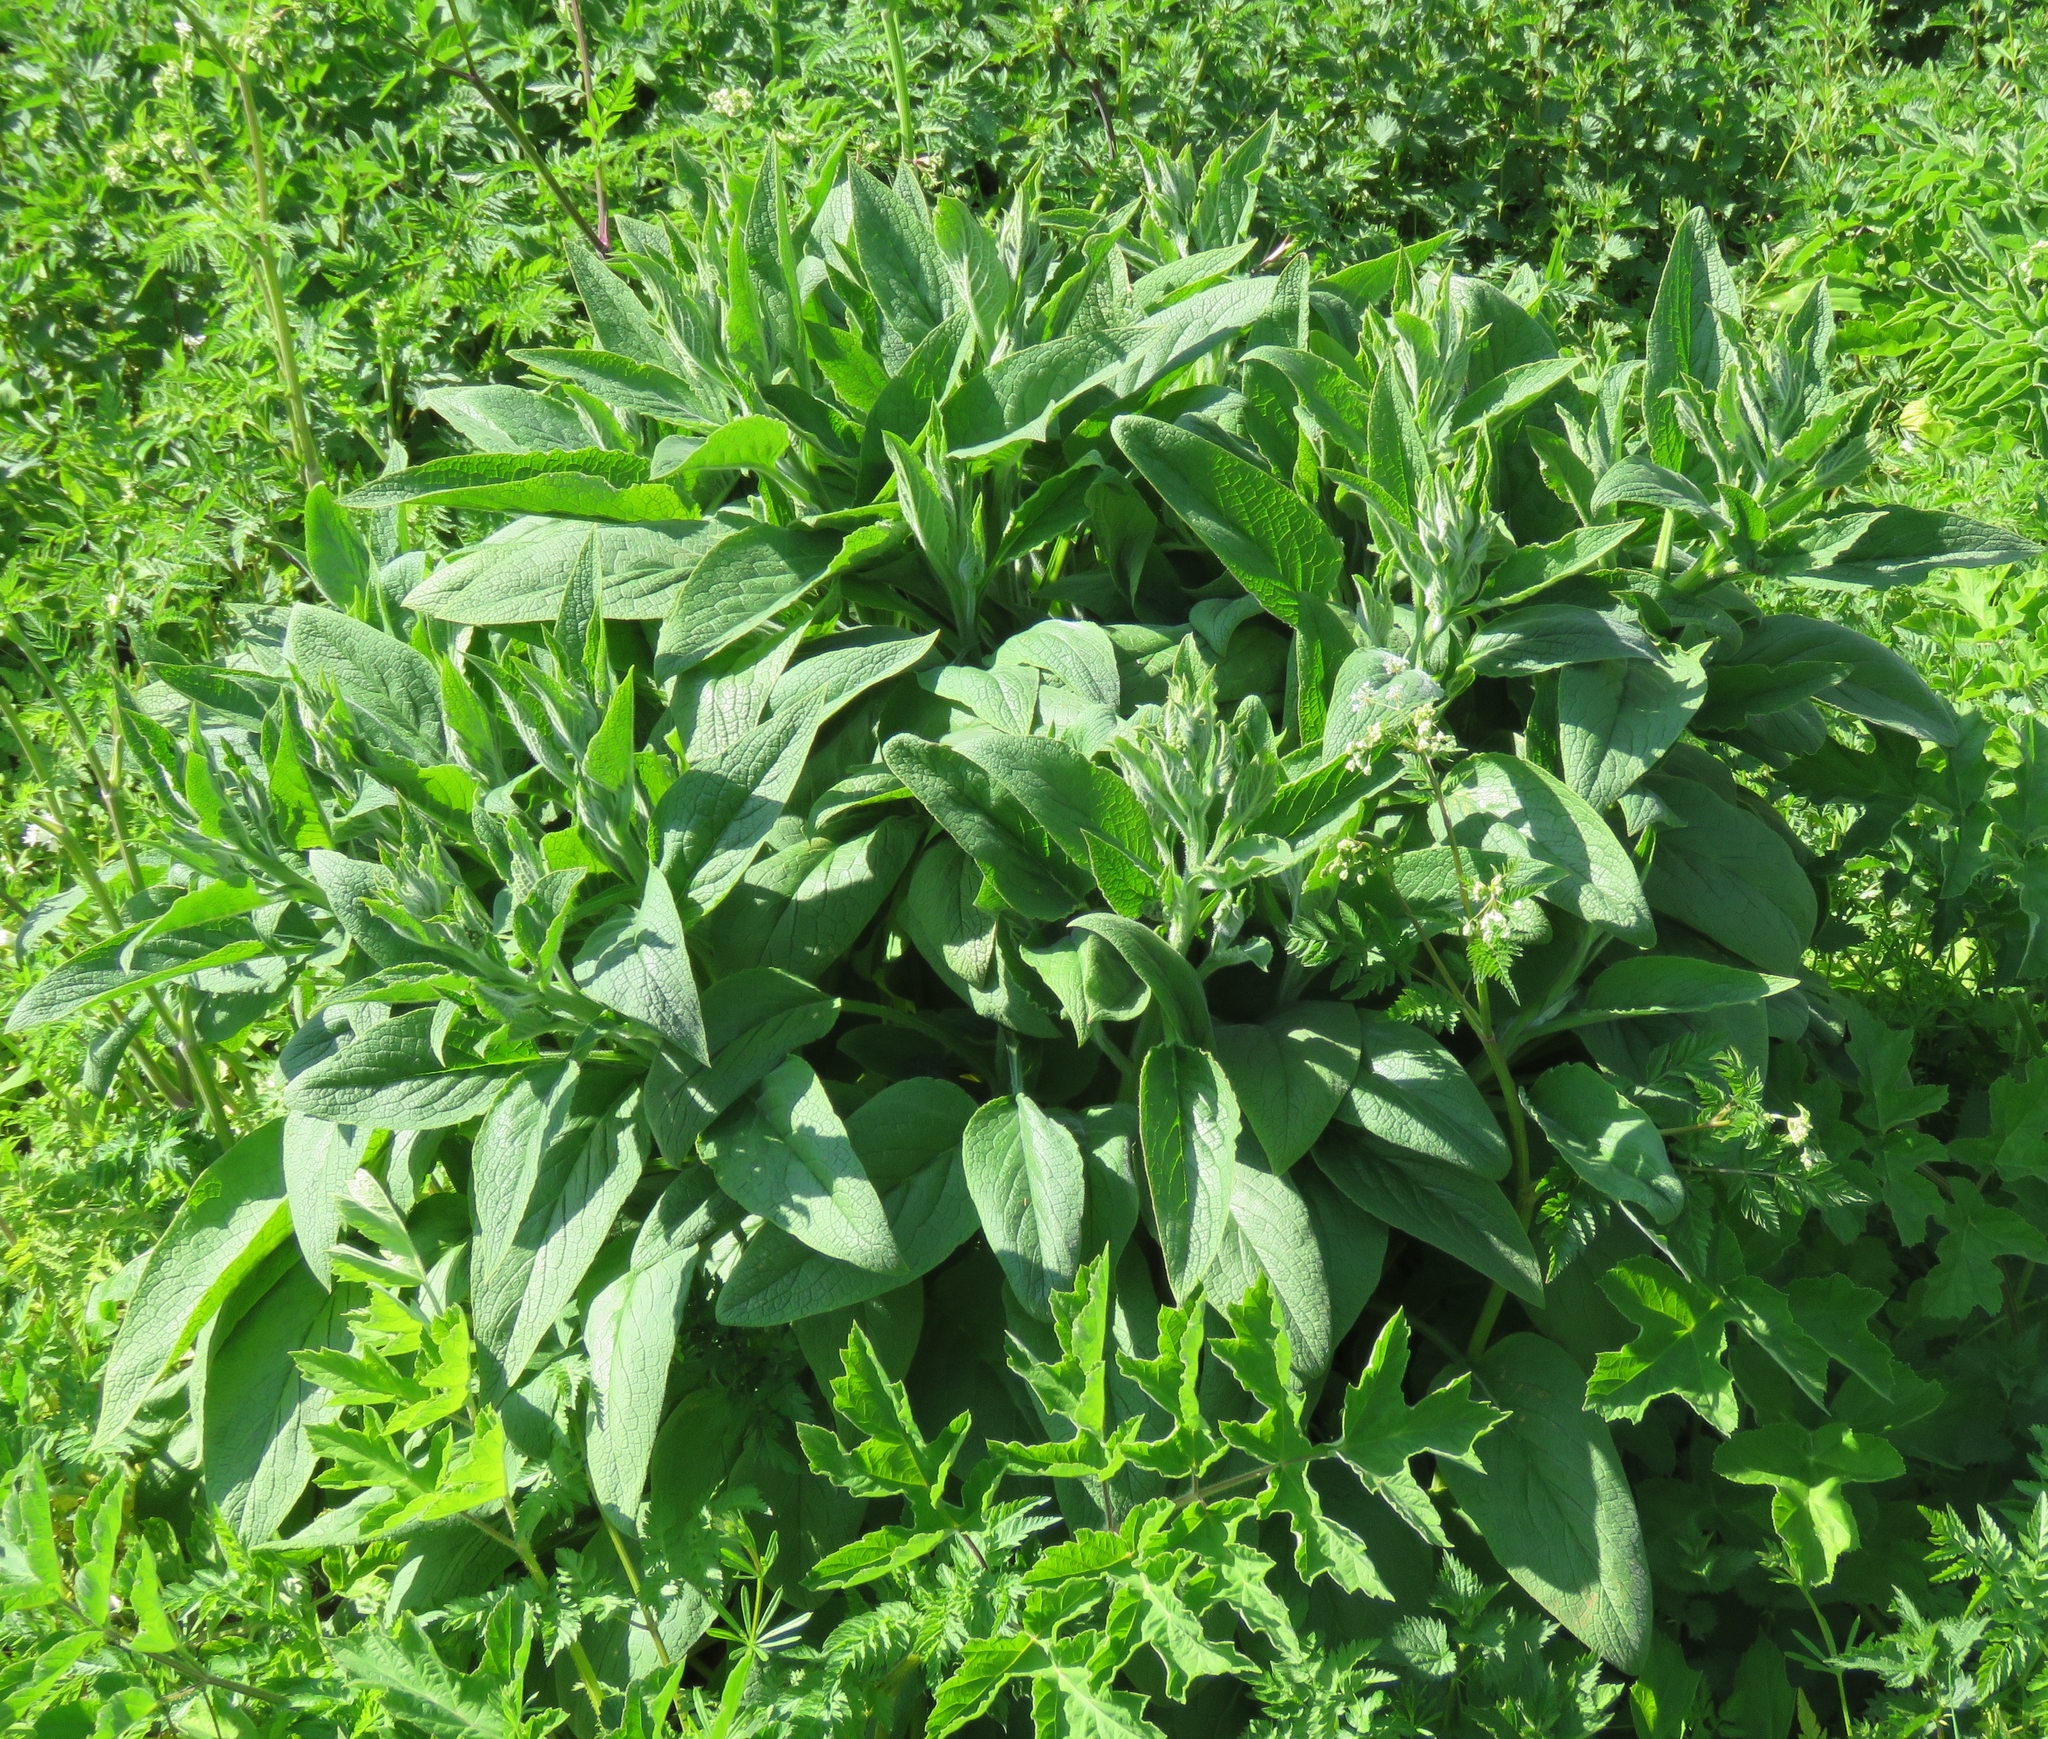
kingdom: Plantae
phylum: Tracheophyta
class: Magnoliopsida
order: Boraginales
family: Boraginaceae
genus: Symphytum
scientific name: Symphytum officinale
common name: Common comfrey
